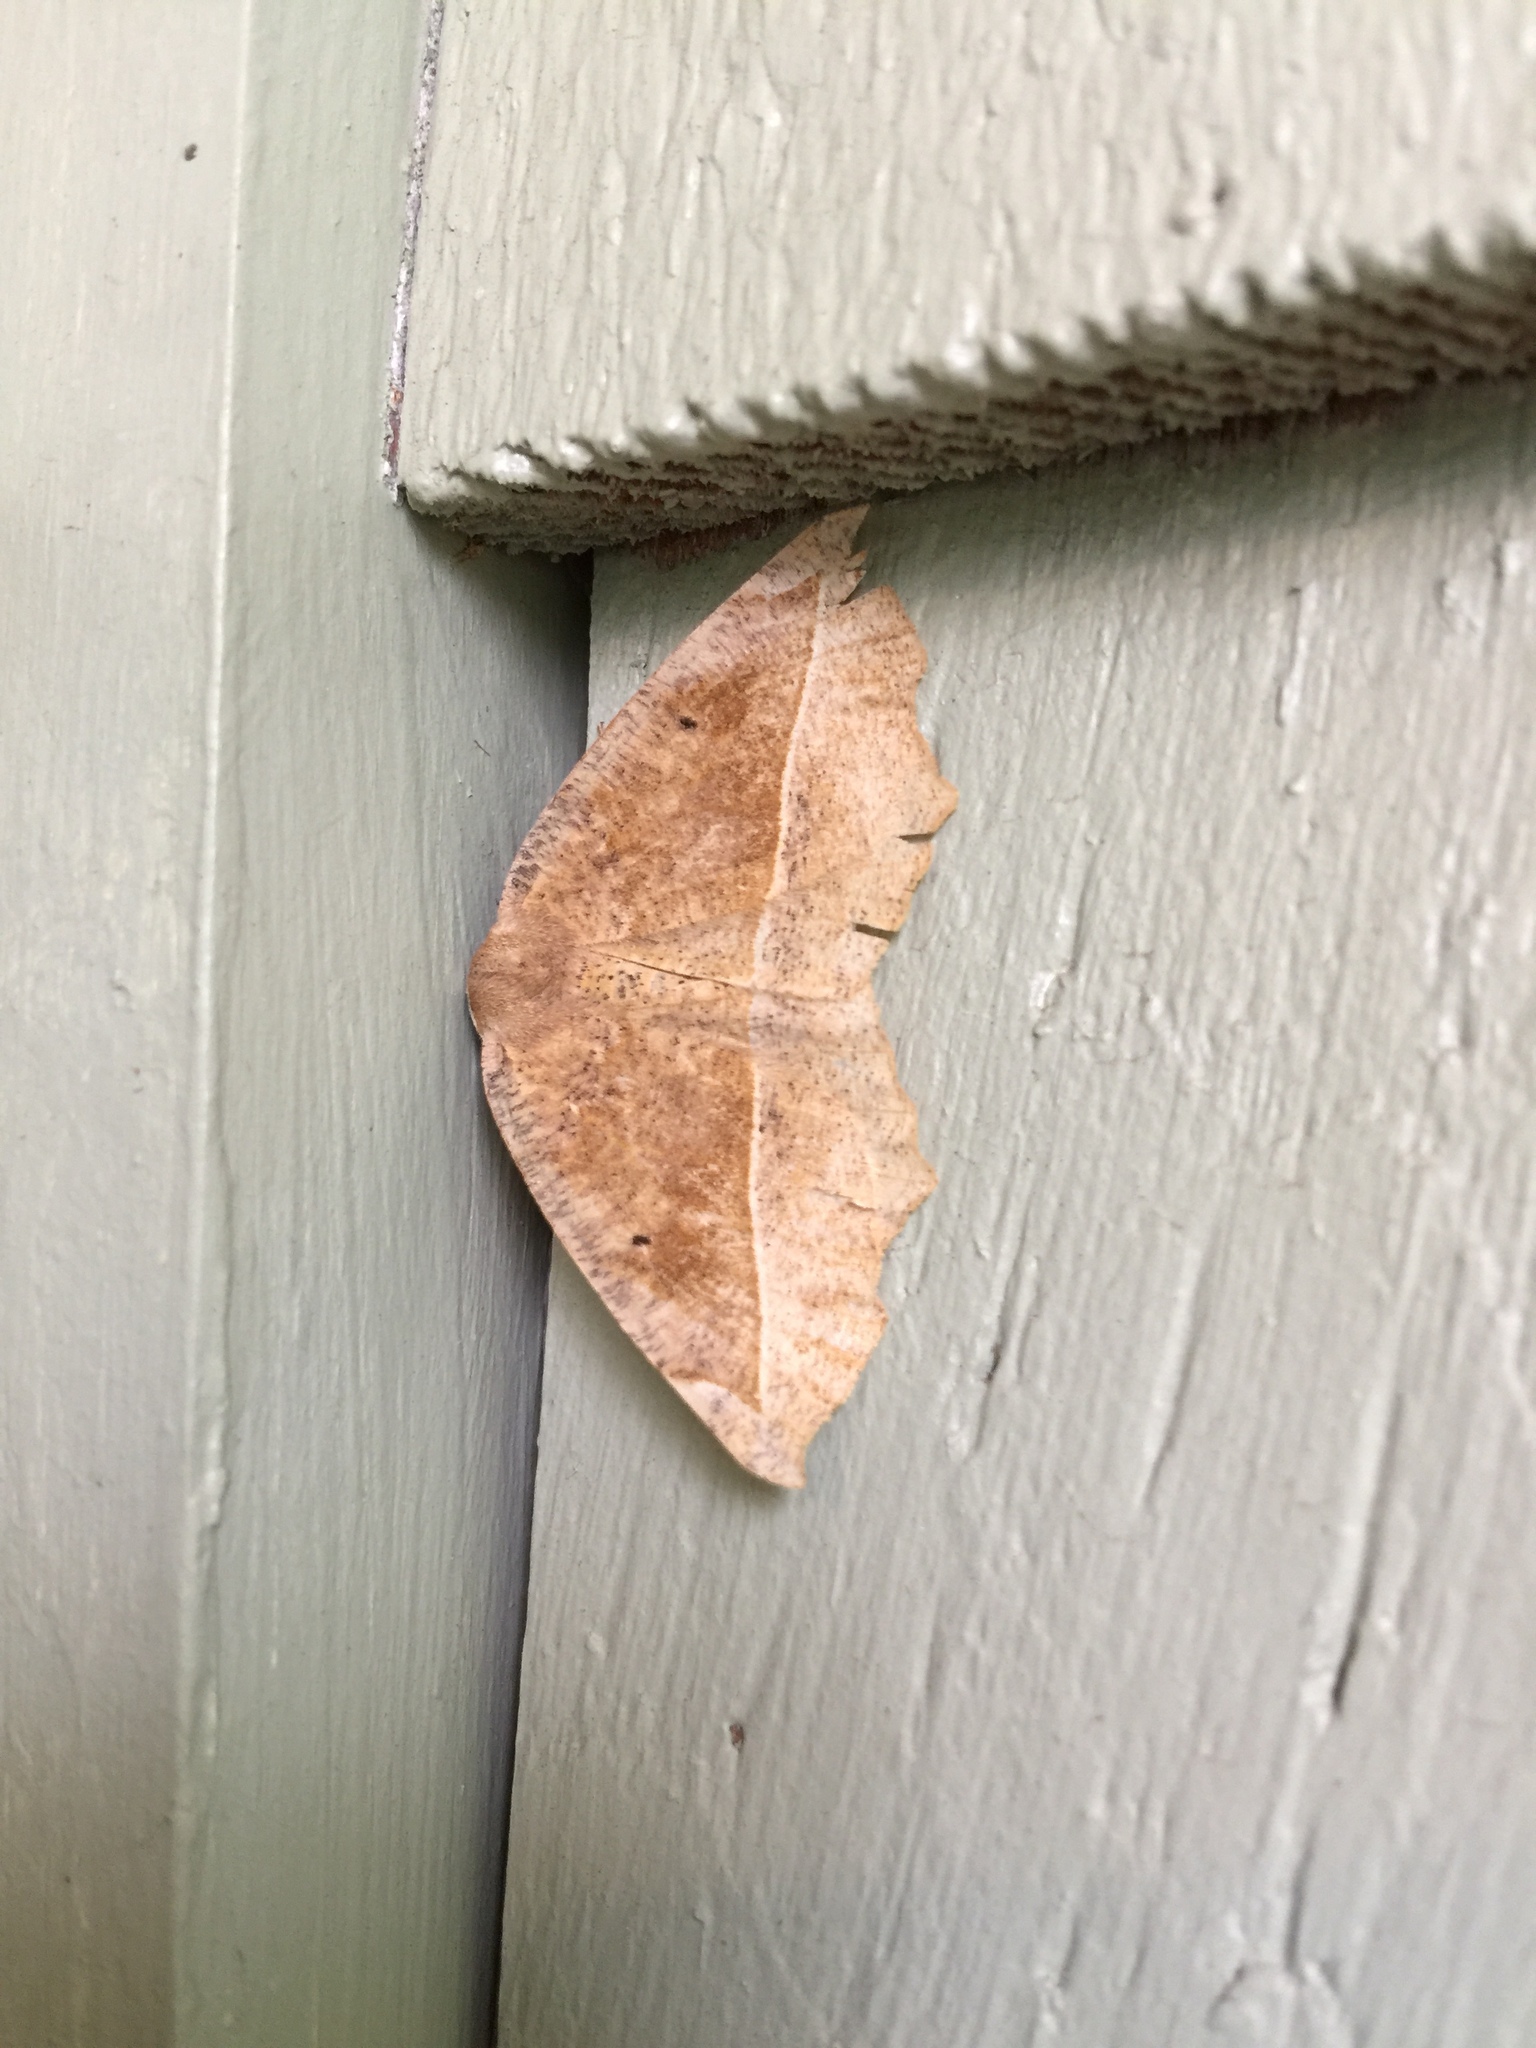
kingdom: Animalia
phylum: Arthropoda
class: Insecta
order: Lepidoptera
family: Geometridae
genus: Eutrapela
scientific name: Eutrapela clemataria
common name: Curved-toothed geometer
